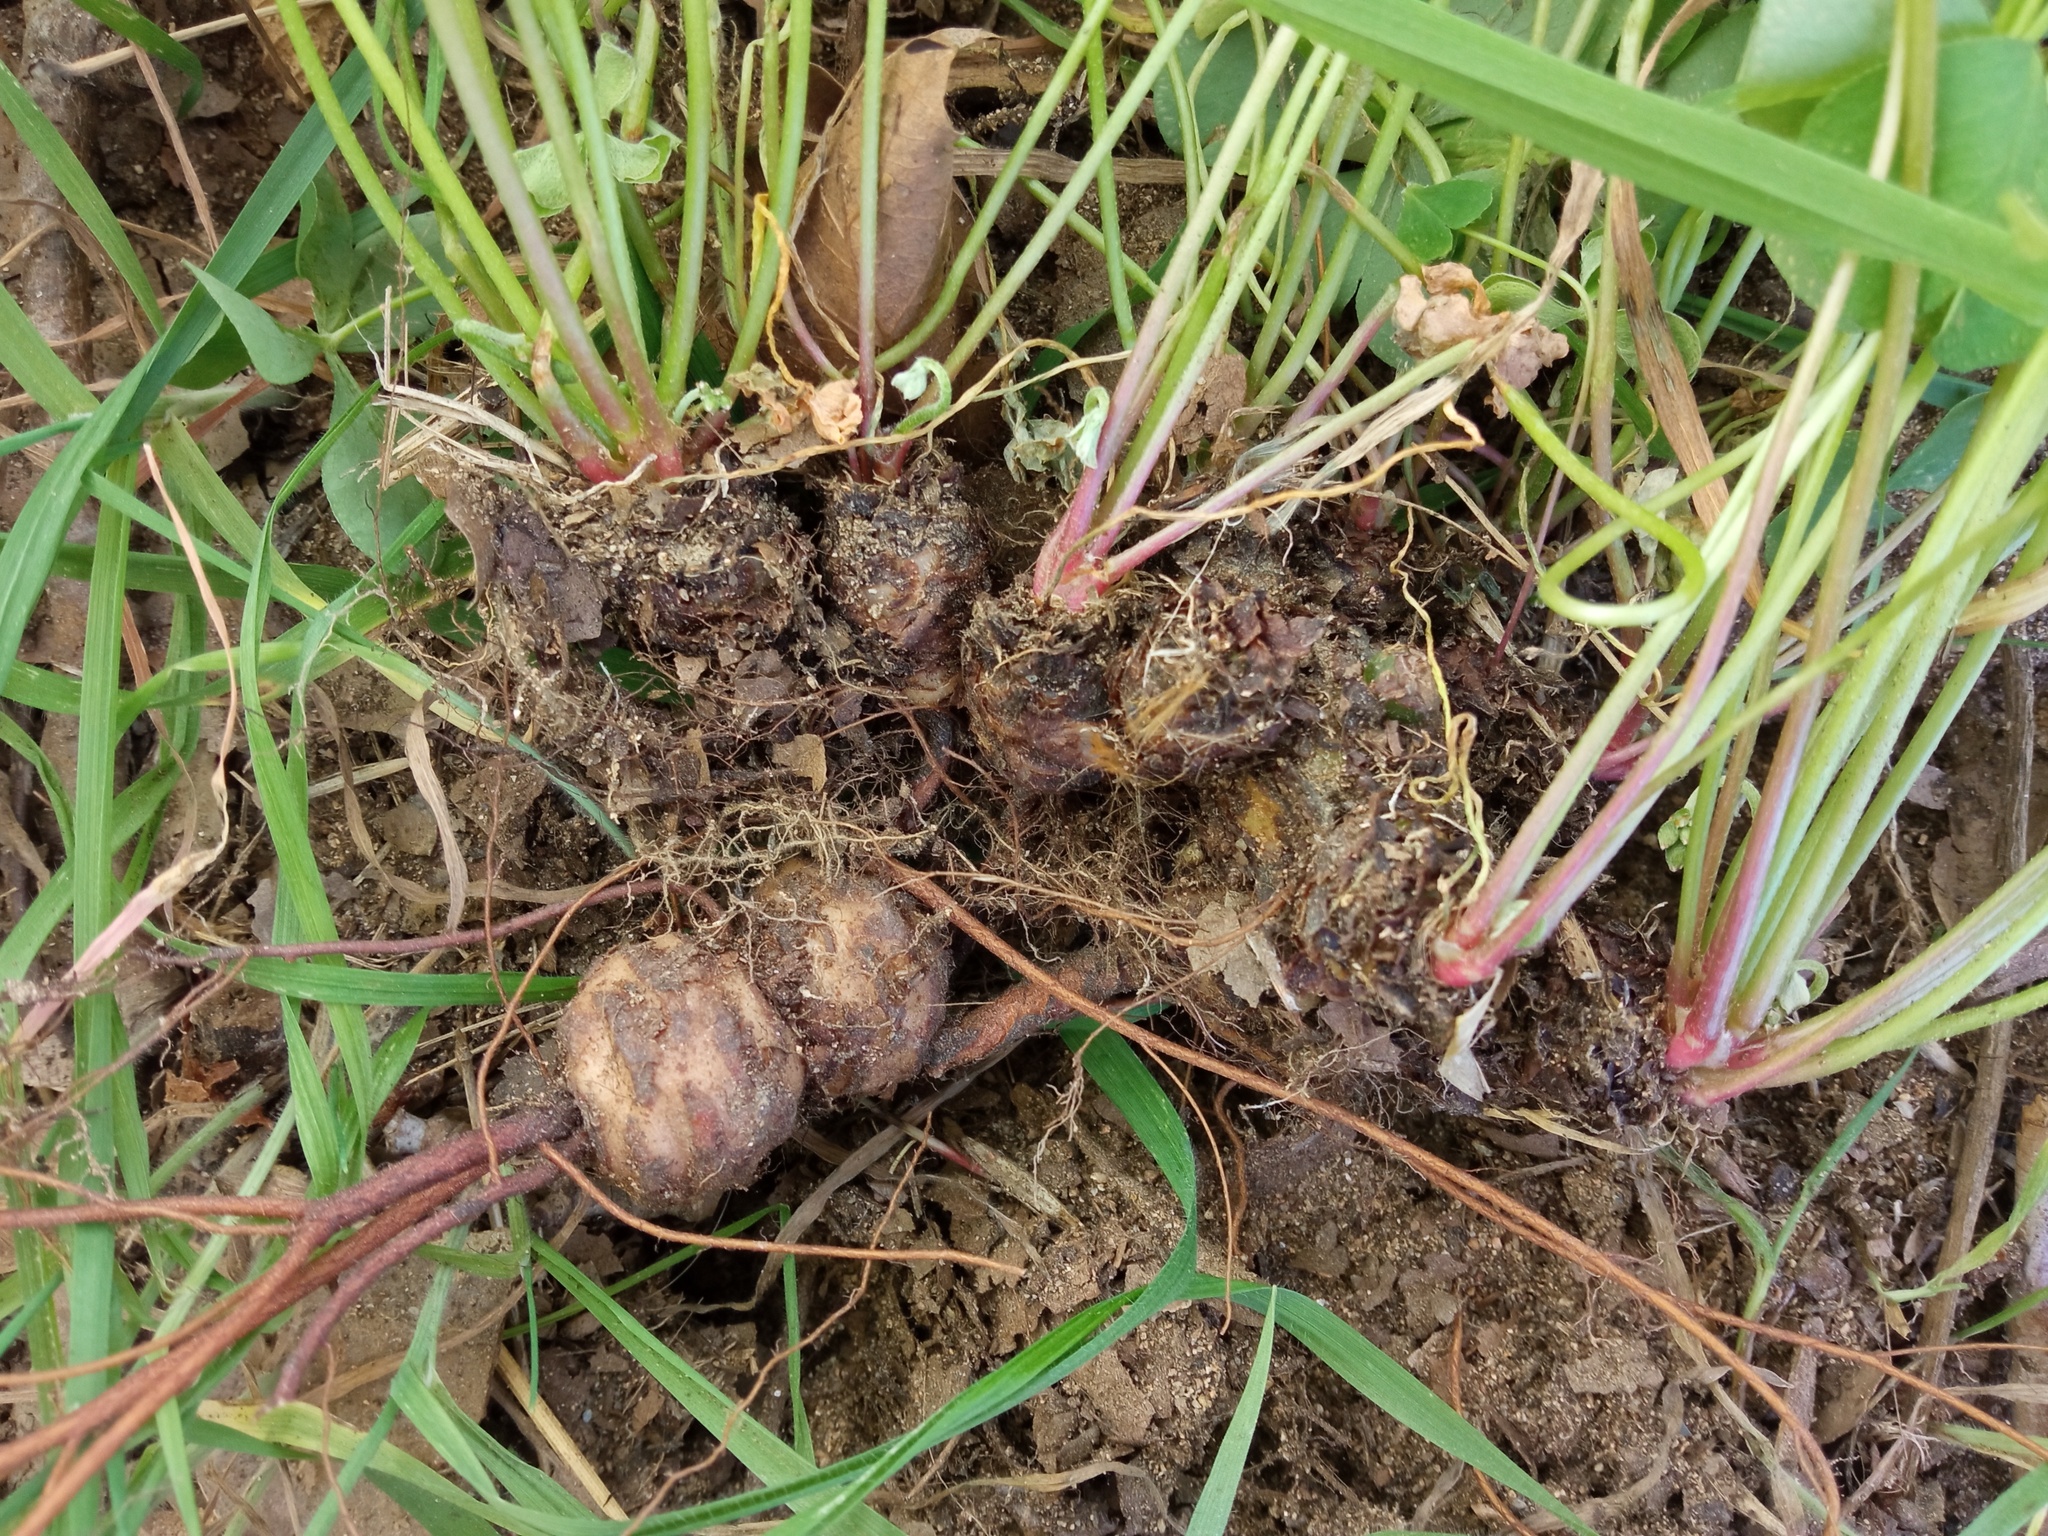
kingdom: Plantae
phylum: Tracheophyta
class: Magnoliopsida
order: Oxalidales
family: Oxalidaceae
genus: Oxalis
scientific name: Oxalis articulata
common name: Pink-sorrel
